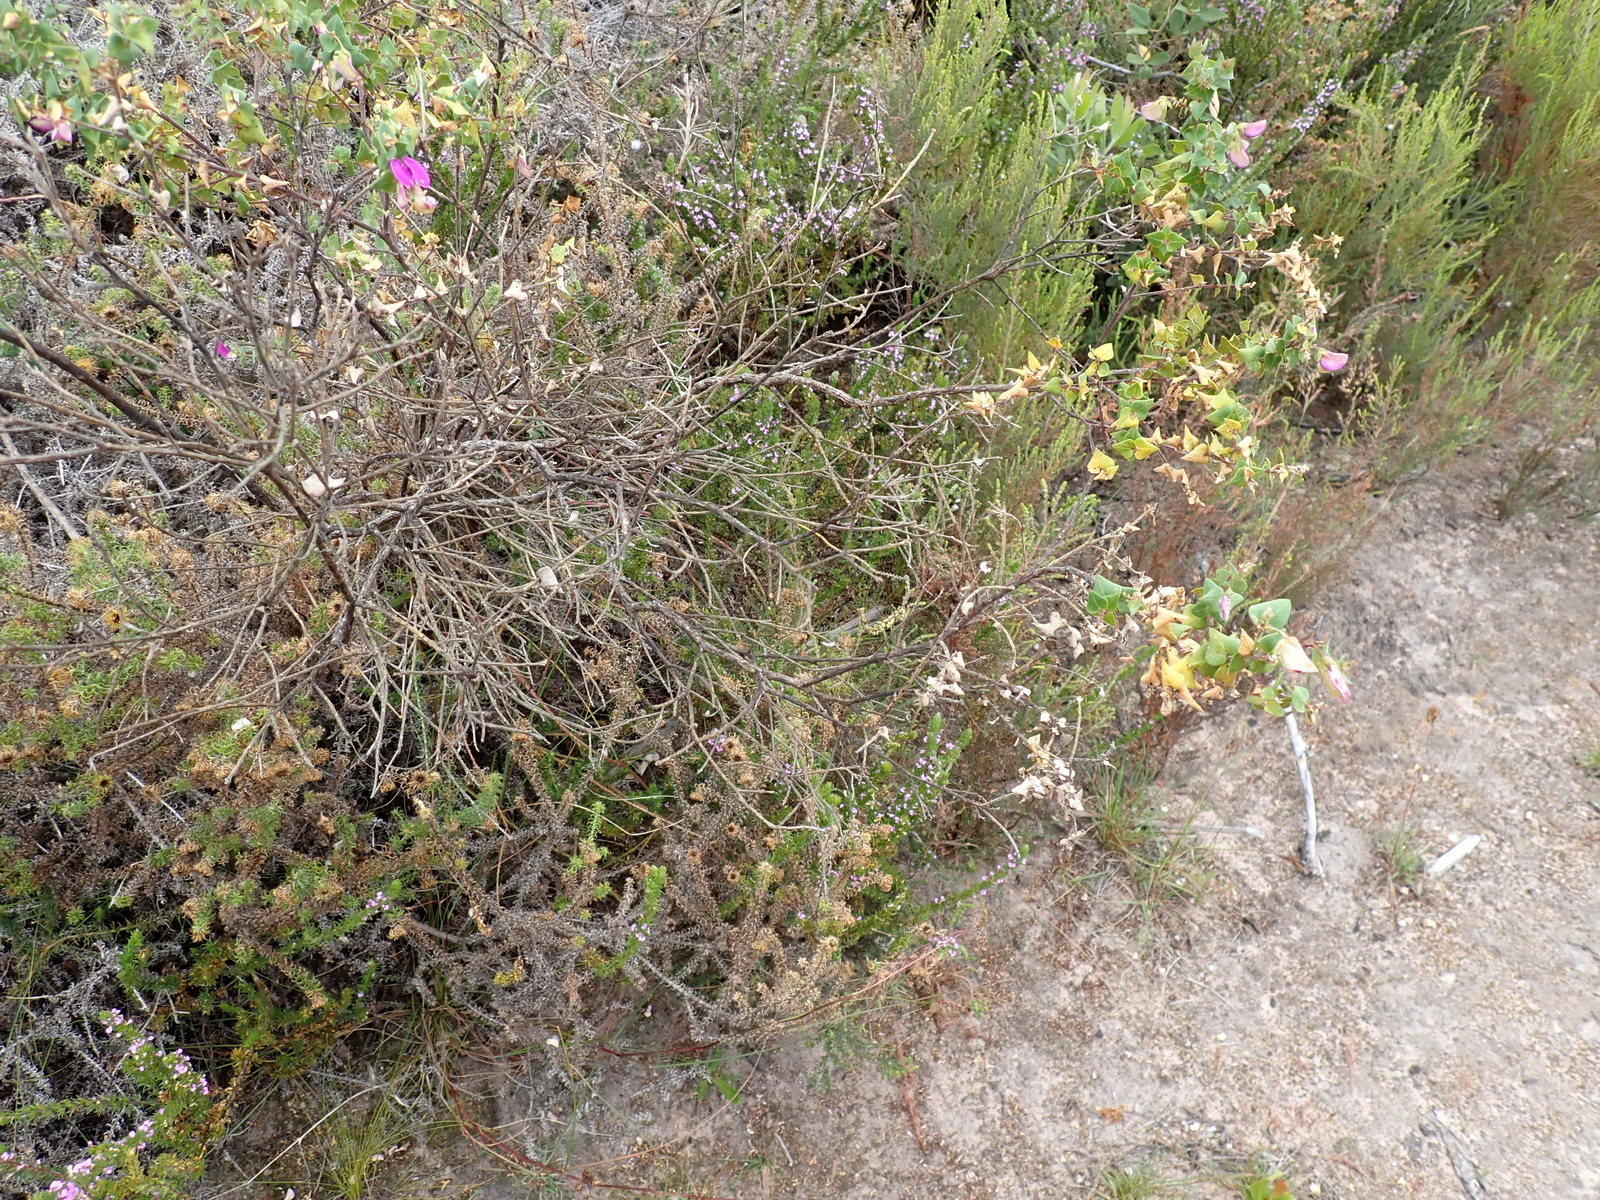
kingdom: Plantae
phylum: Tracheophyta
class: Magnoliopsida
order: Fabales
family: Polygalaceae
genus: Polygala
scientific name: Polygala fruticosa
